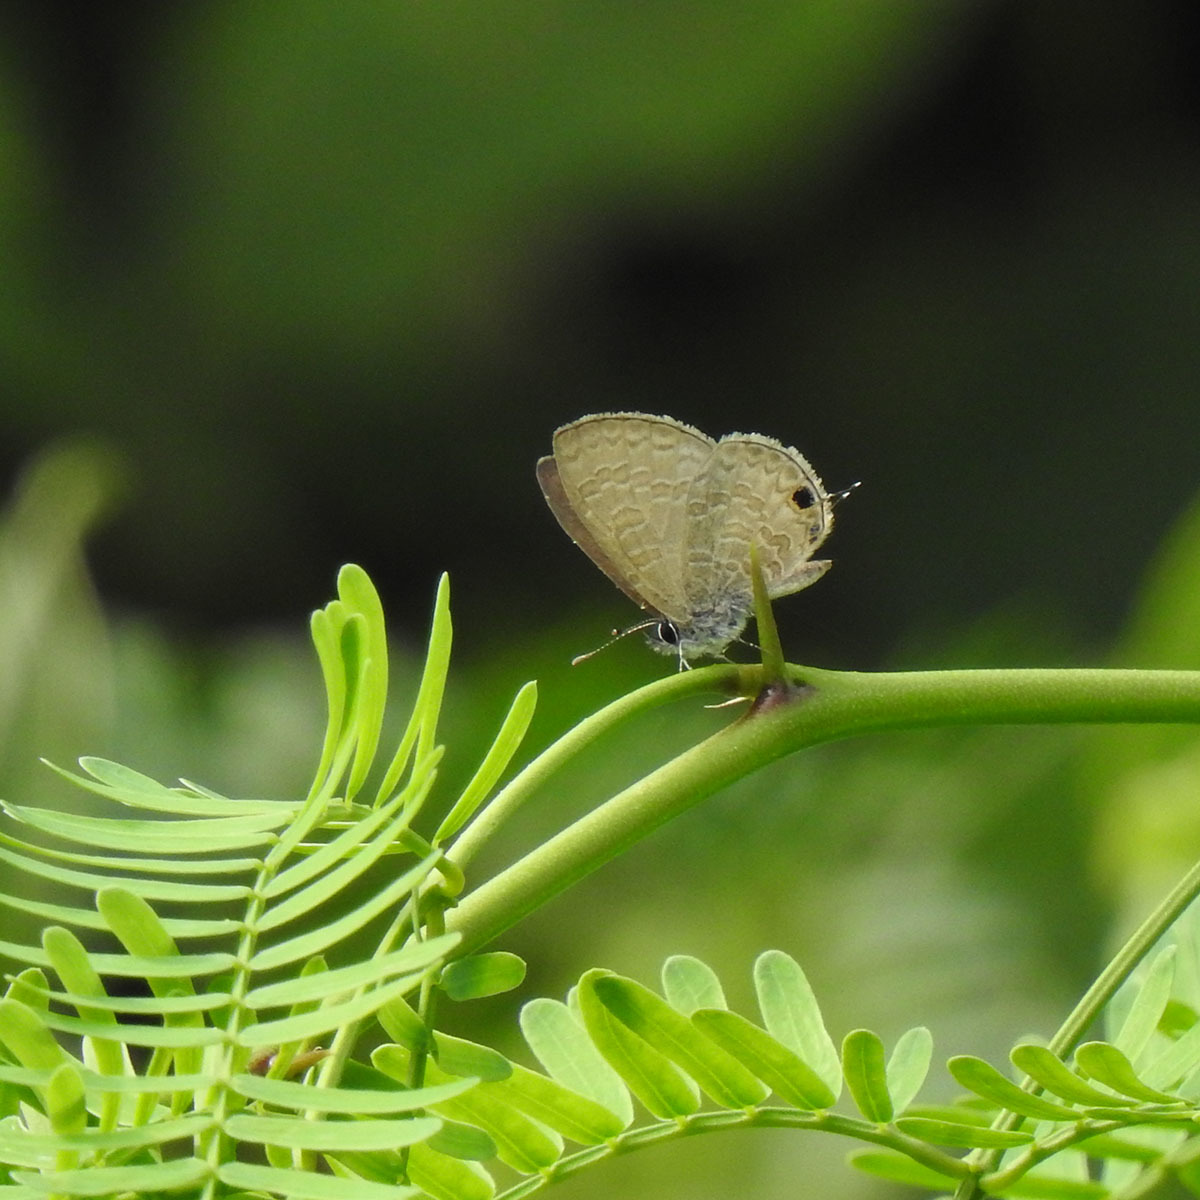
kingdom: Animalia
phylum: Arthropoda
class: Insecta
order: Lepidoptera
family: Lycaenidae
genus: Prosotas
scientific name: Prosotas nora
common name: Common line blue
